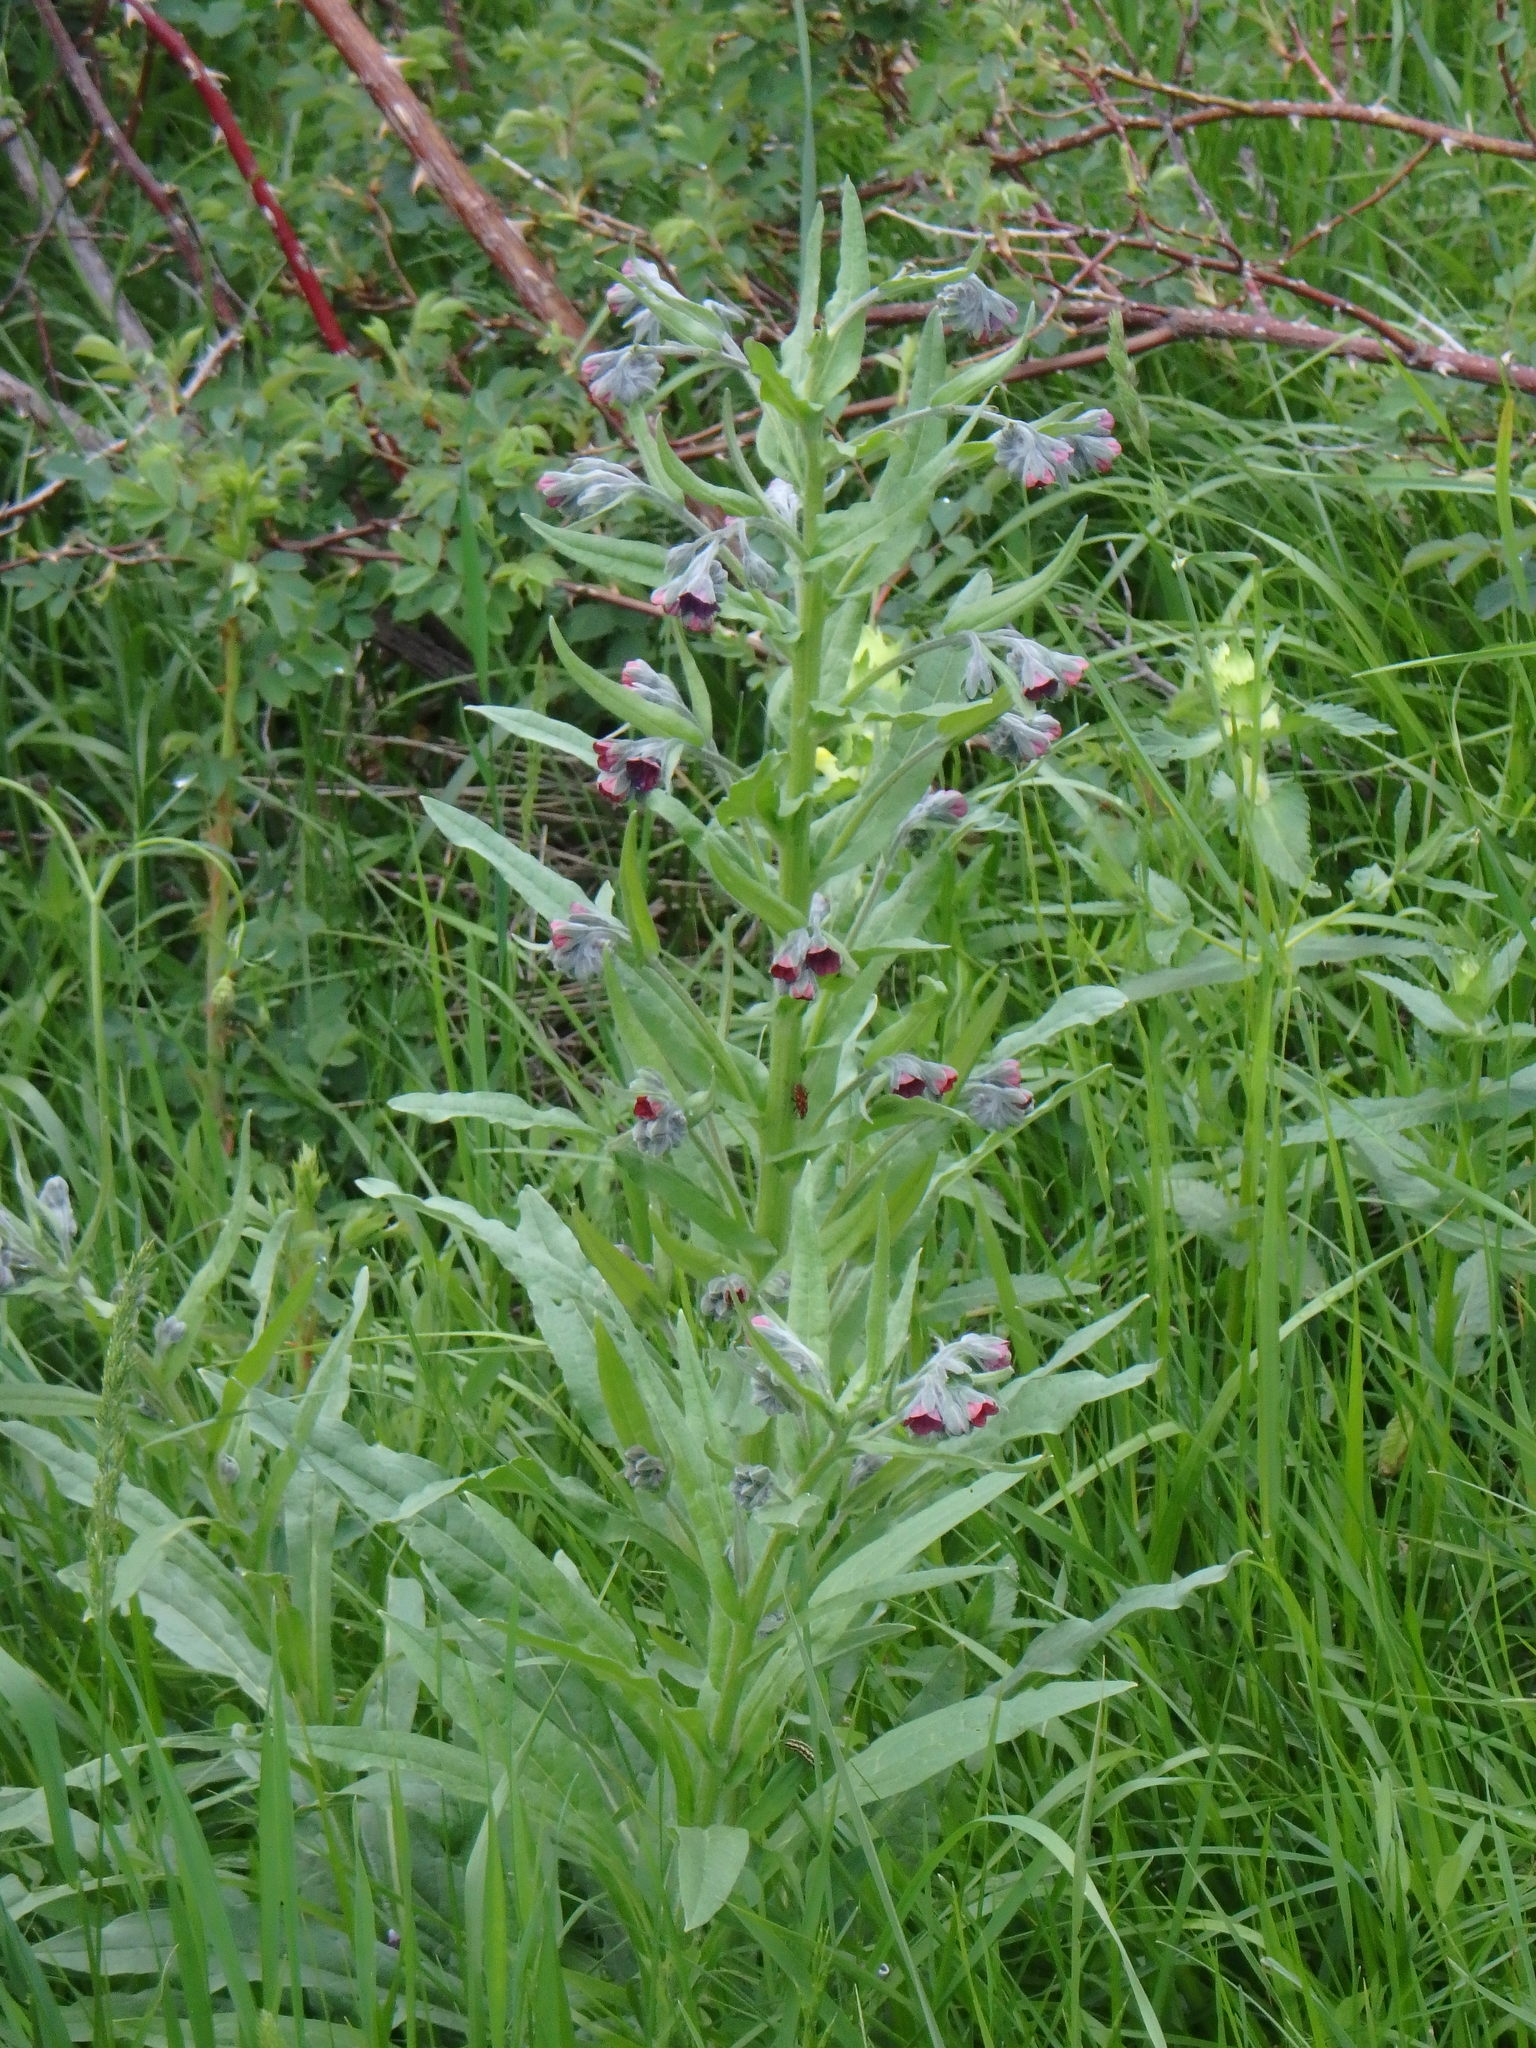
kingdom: Plantae
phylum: Tracheophyta
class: Magnoliopsida
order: Boraginales
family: Boraginaceae
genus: Cynoglossum
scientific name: Cynoglossum officinale
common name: Hound's-tongue
